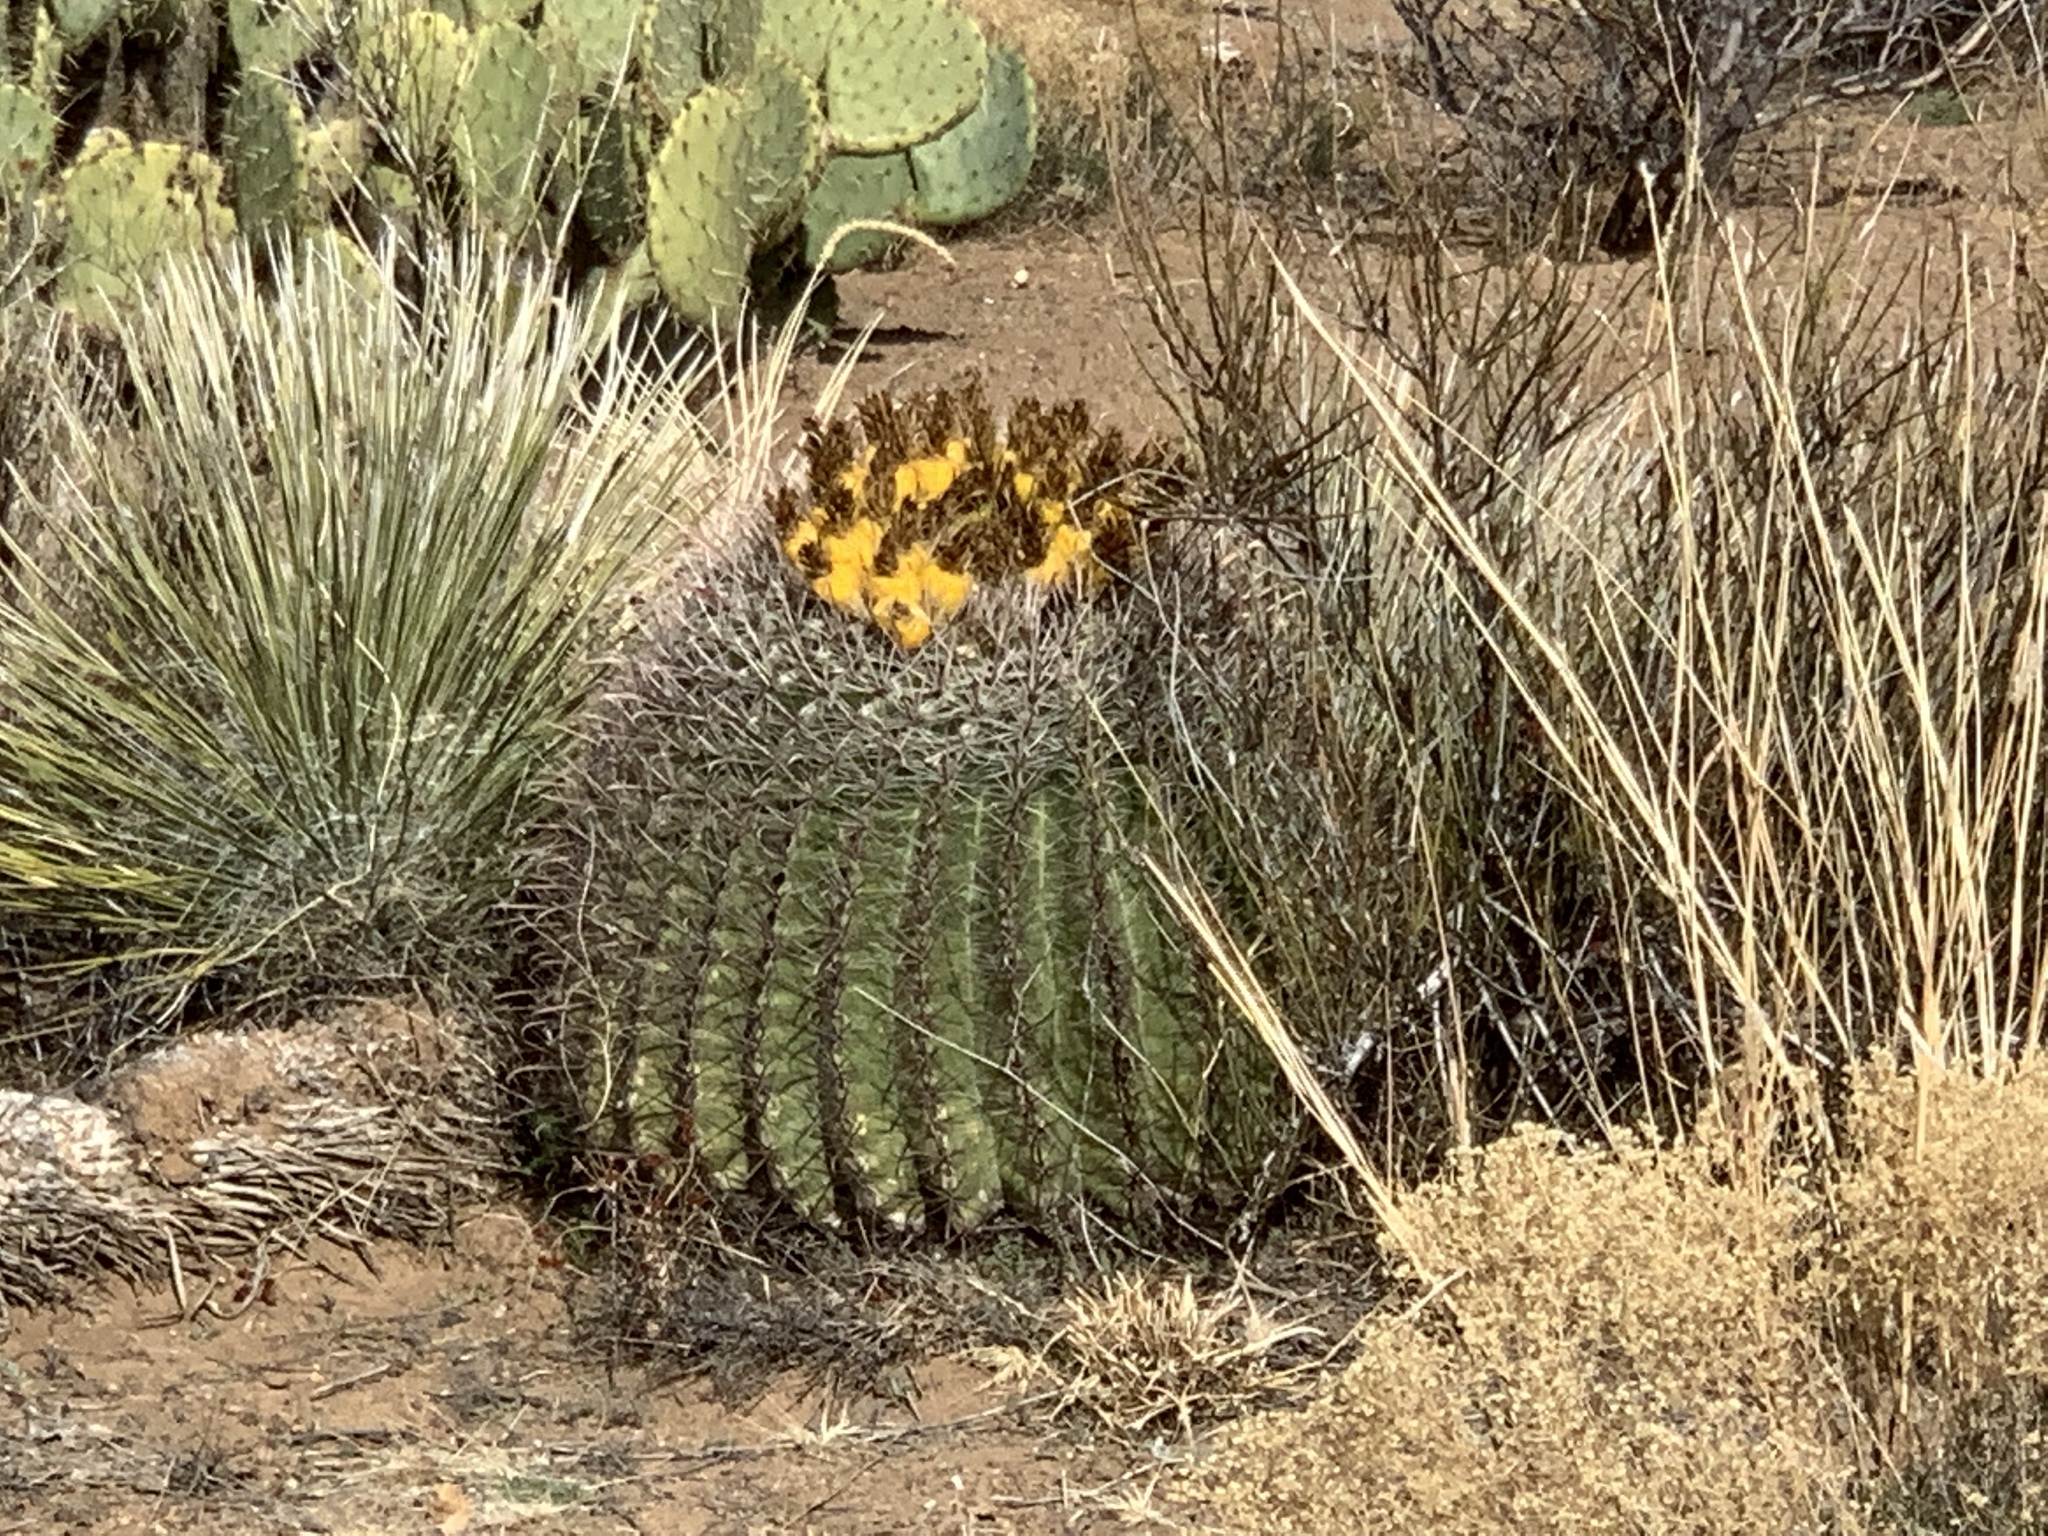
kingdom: Plantae
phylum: Tracheophyta
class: Magnoliopsida
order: Caryophyllales
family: Cactaceae
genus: Ferocactus
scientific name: Ferocactus wislizeni
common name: Candy barrel cactus
